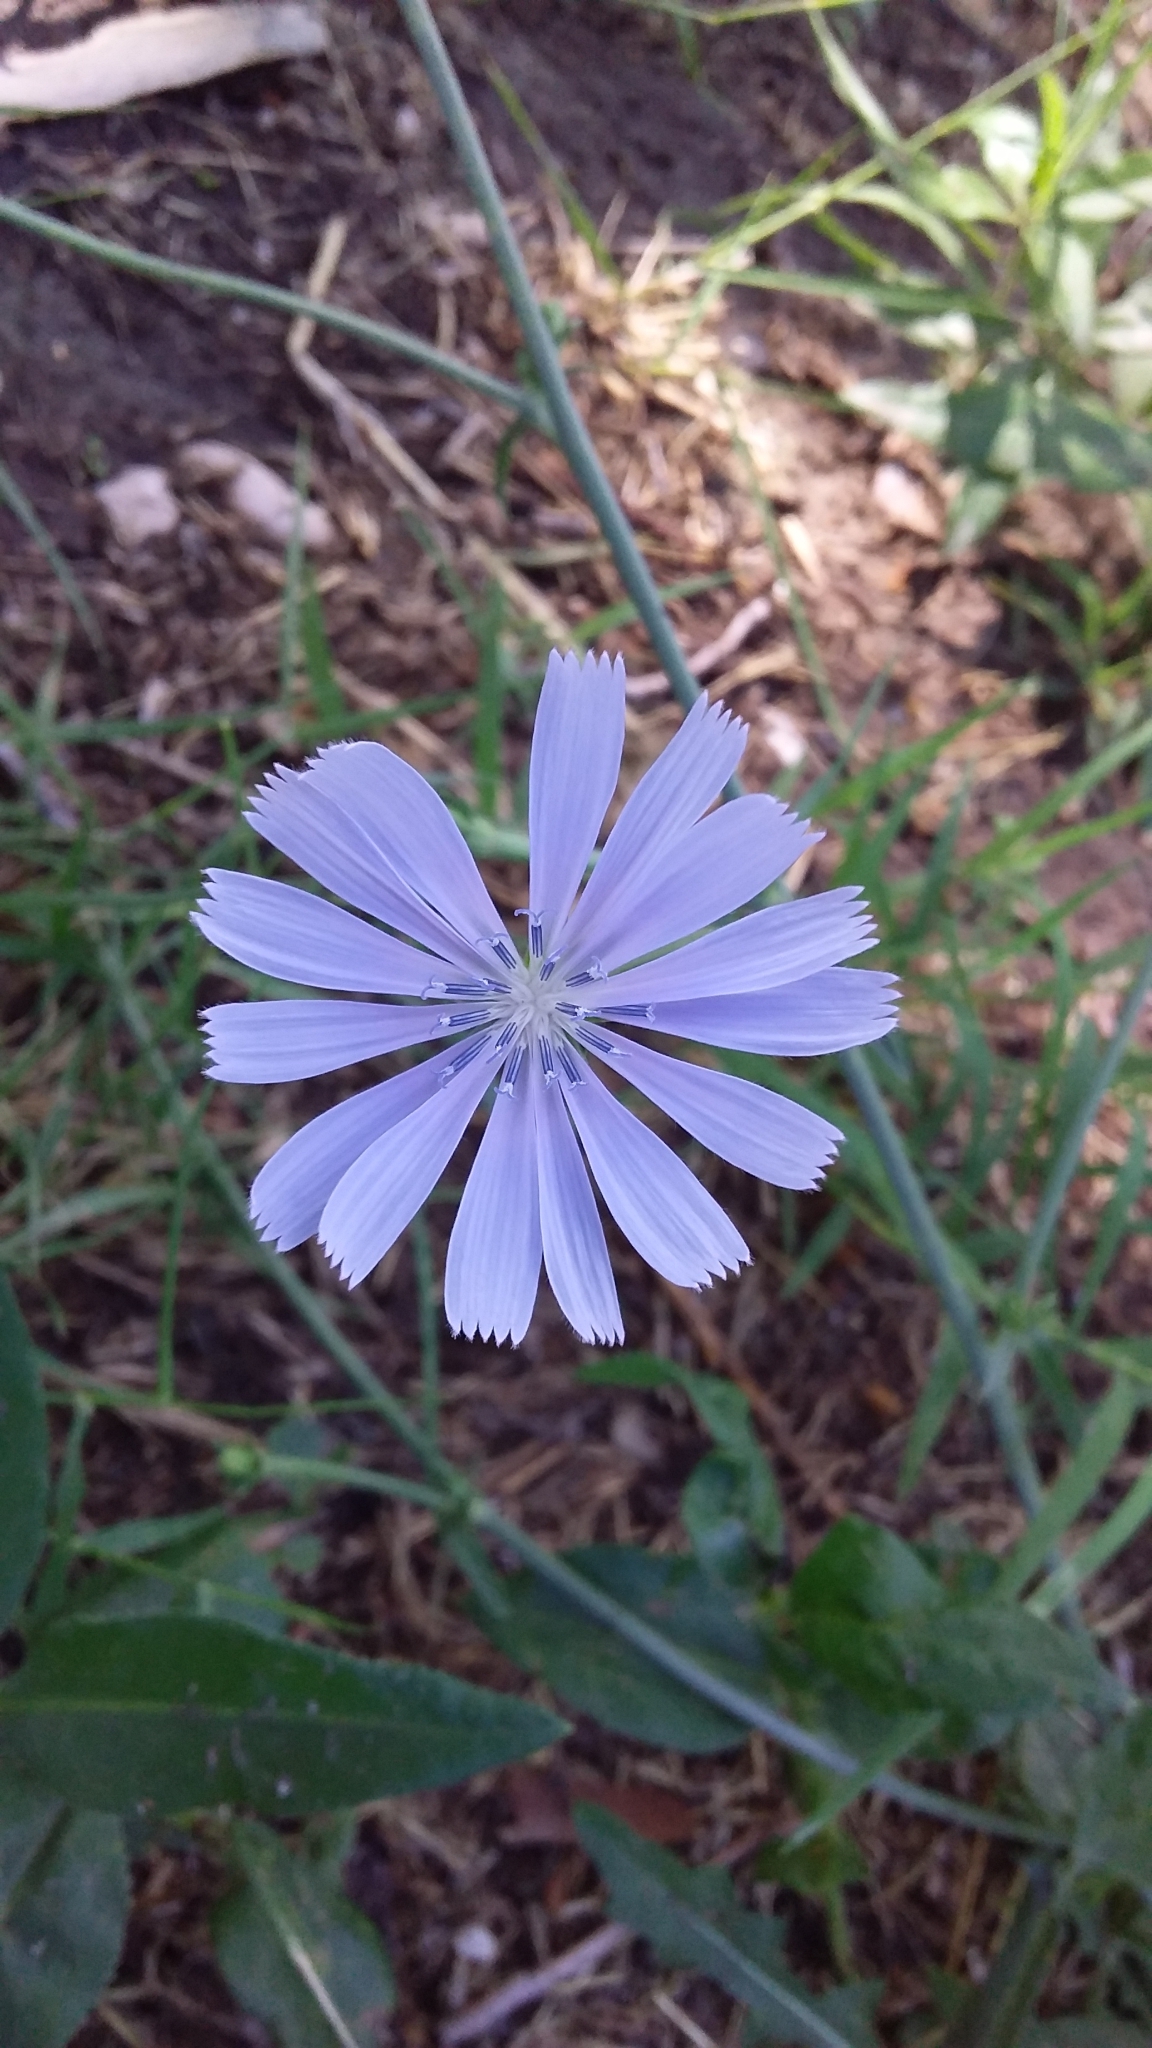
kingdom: Plantae
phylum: Tracheophyta
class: Magnoliopsida
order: Asterales
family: Asteraceae
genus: Cichorium
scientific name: Cichorium intybus
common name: Chicory
